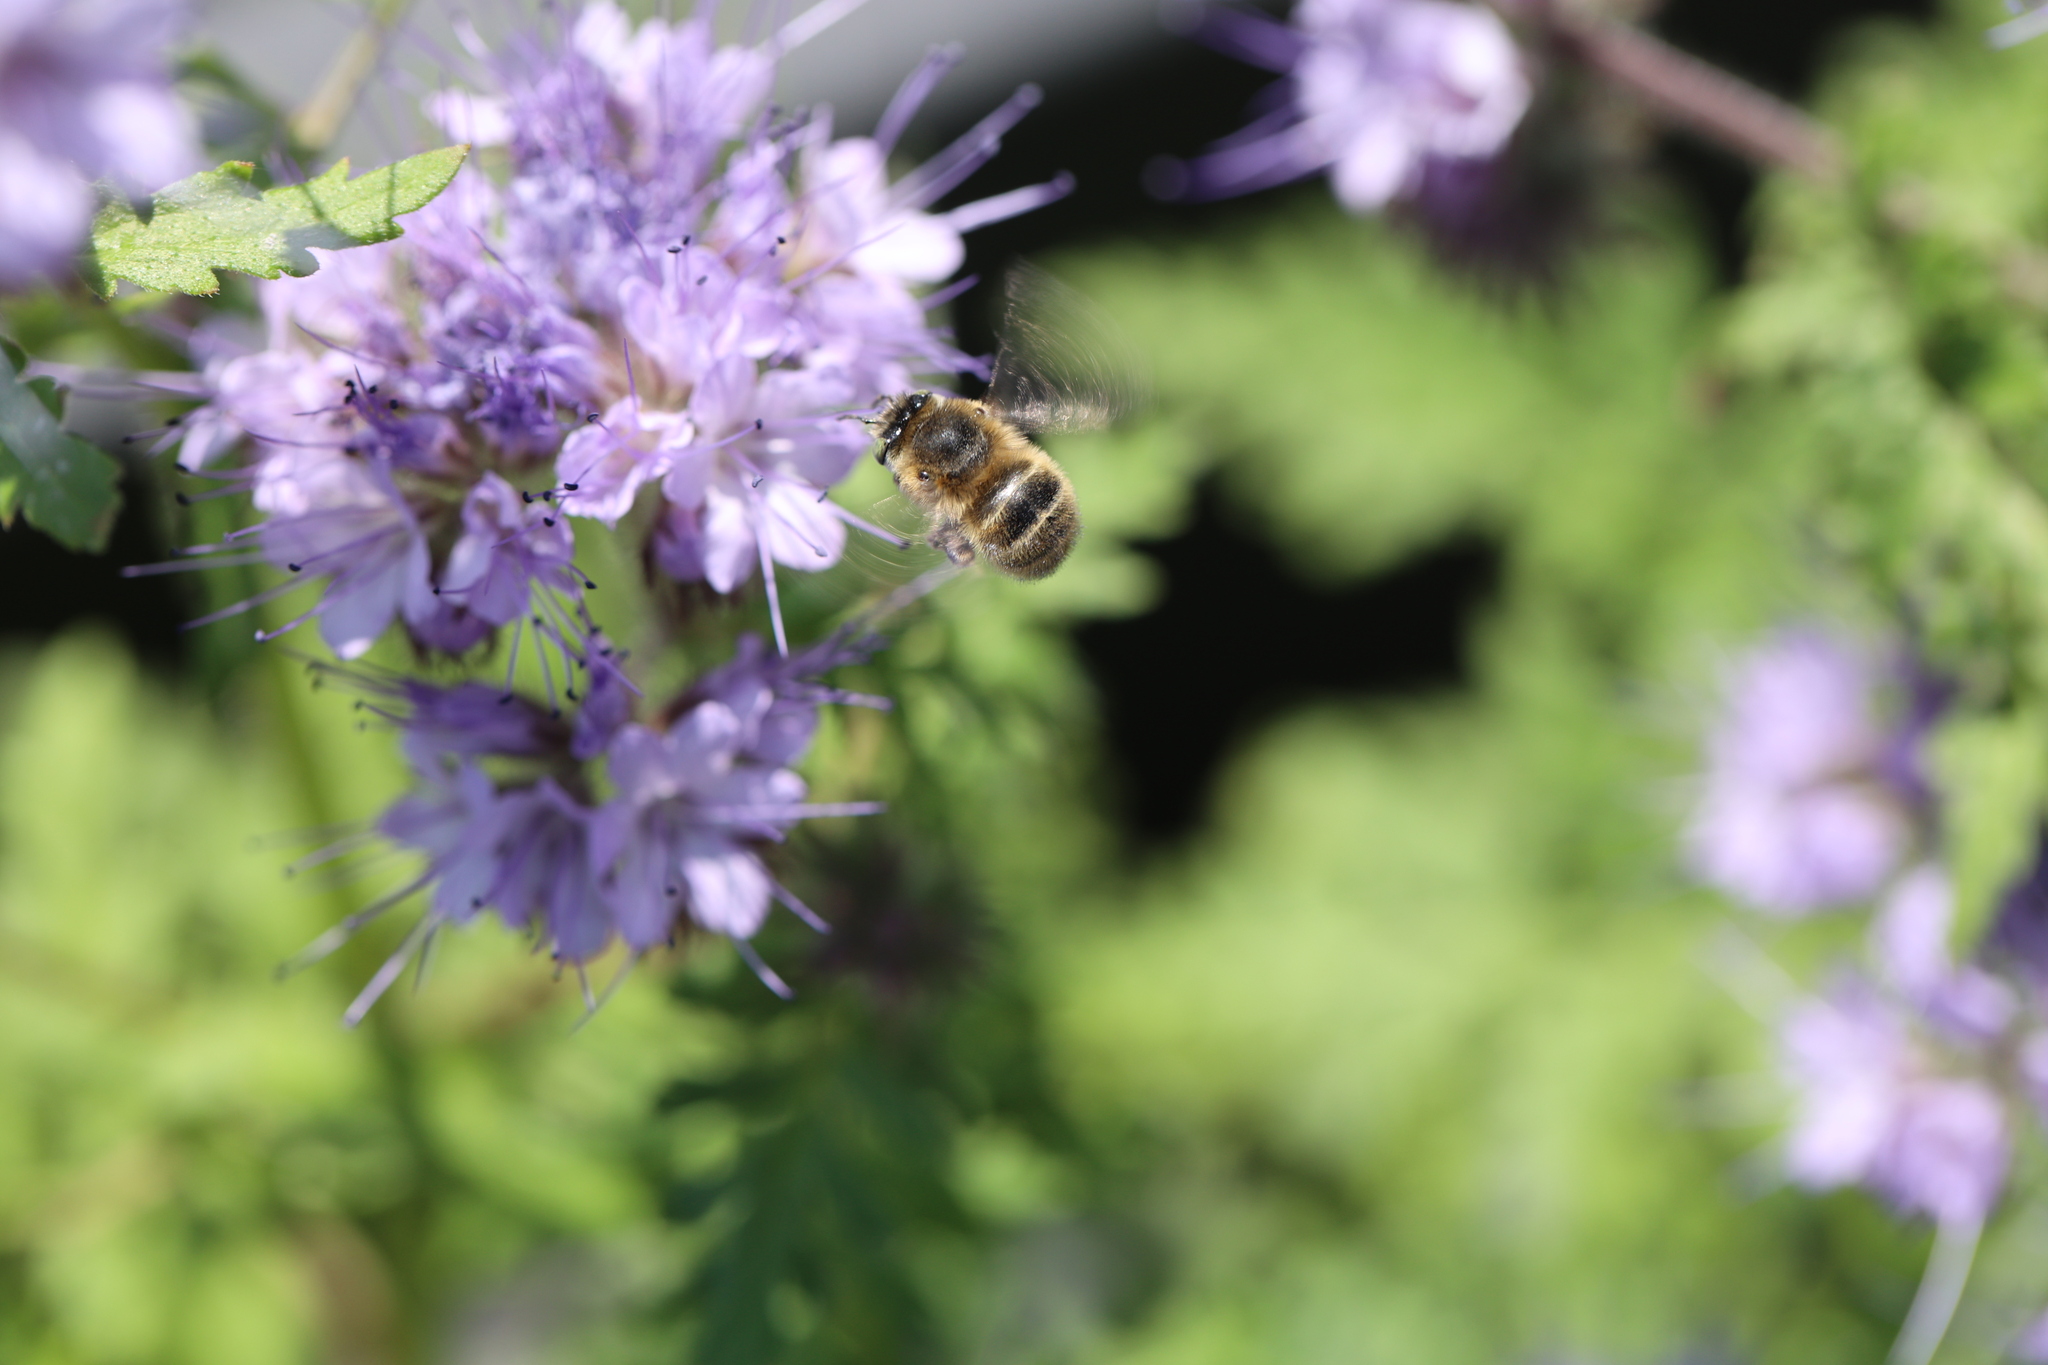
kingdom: Animalia
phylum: Arthropoda
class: Insecta
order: Hymenoptera
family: Apidae
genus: Anthophora
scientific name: Anthophora quadrimaculata
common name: Four-banded flower bee
